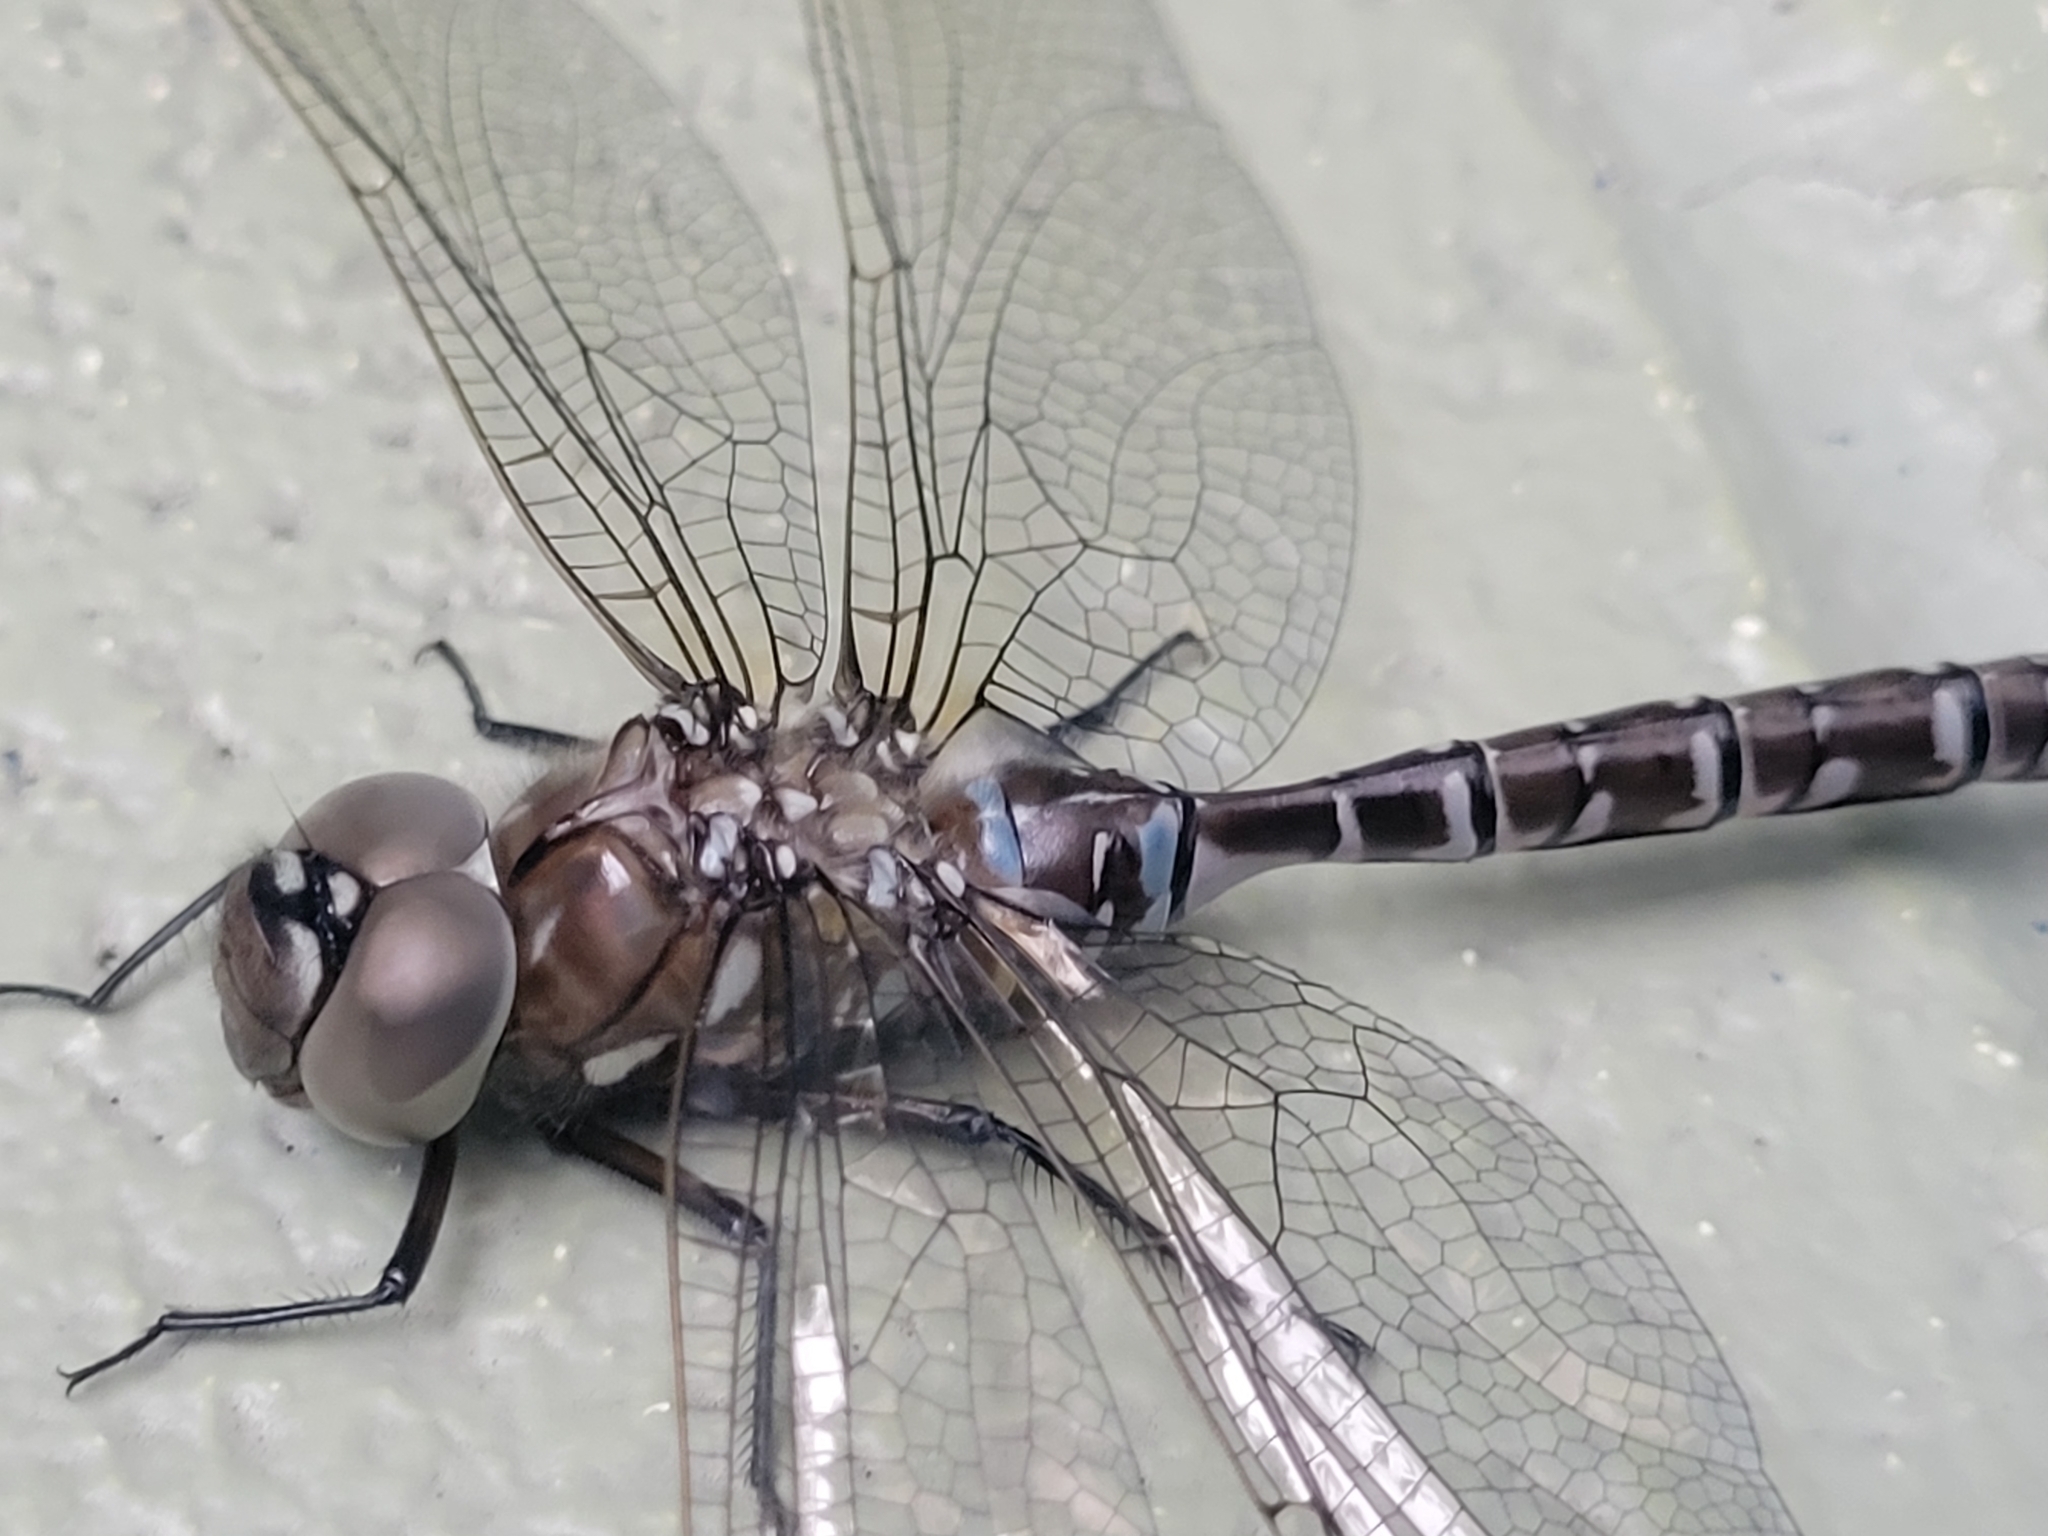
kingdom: Animalia
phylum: Arthropoda
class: Insecta
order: Odonata
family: Aeshnidae
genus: Aeshna
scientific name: Aeshna interrupta
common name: Variable darner
